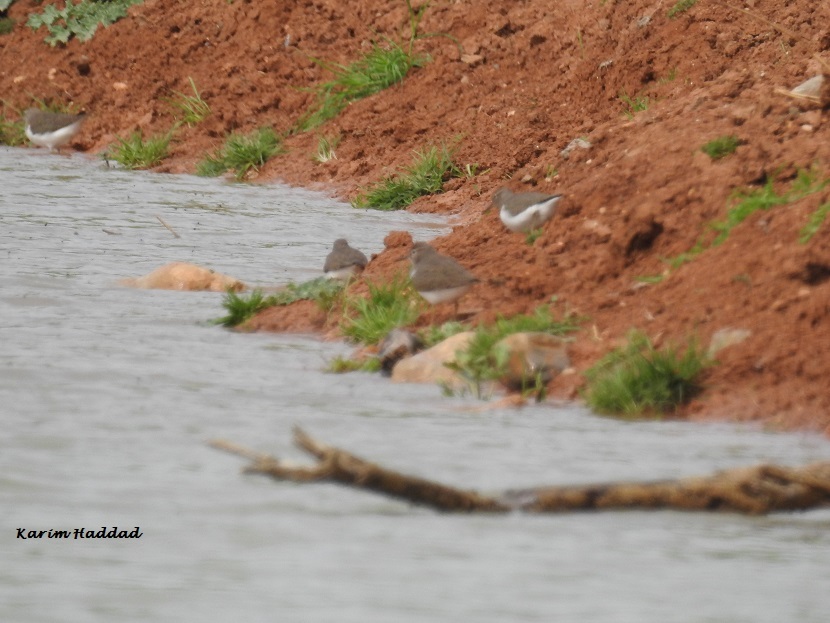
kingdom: Animalia
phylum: Chordata
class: Aves
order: Charadriiformes
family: Scolopacidae
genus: Actitis
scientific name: Actitis hypoleucos
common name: Common sandpiper
